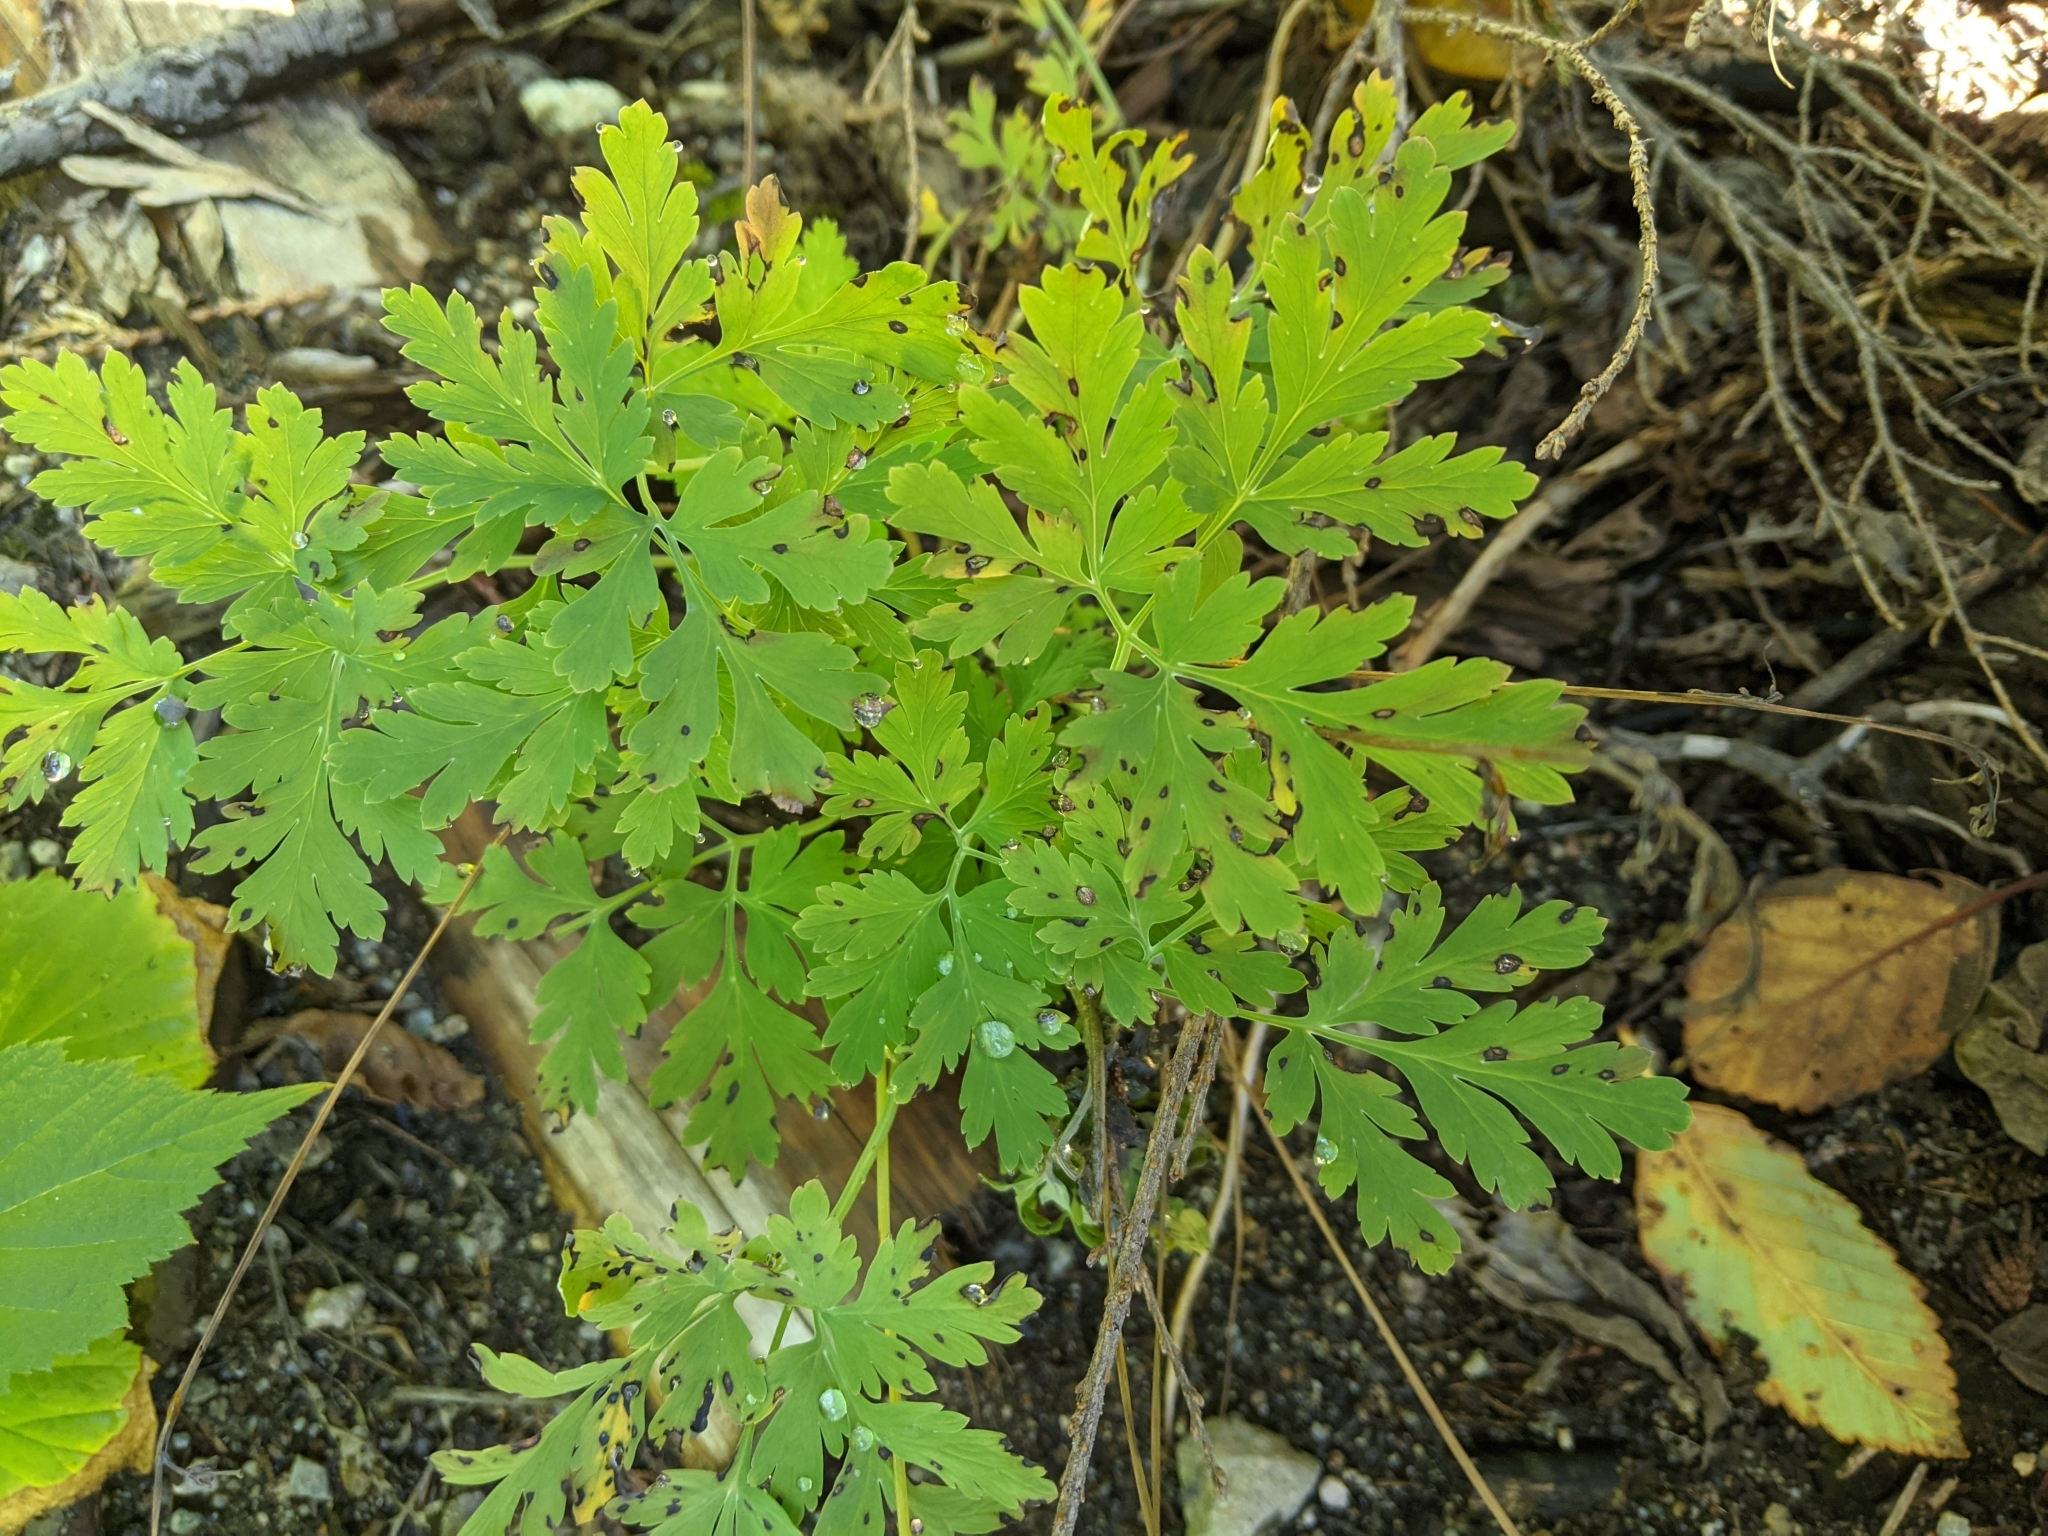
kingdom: Plantae
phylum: Tracheophyta
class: Magnoliopsida
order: Ranunculales
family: Papaveraceae
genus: Dicentra
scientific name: Dicentra formosa
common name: Bleeding-heart
